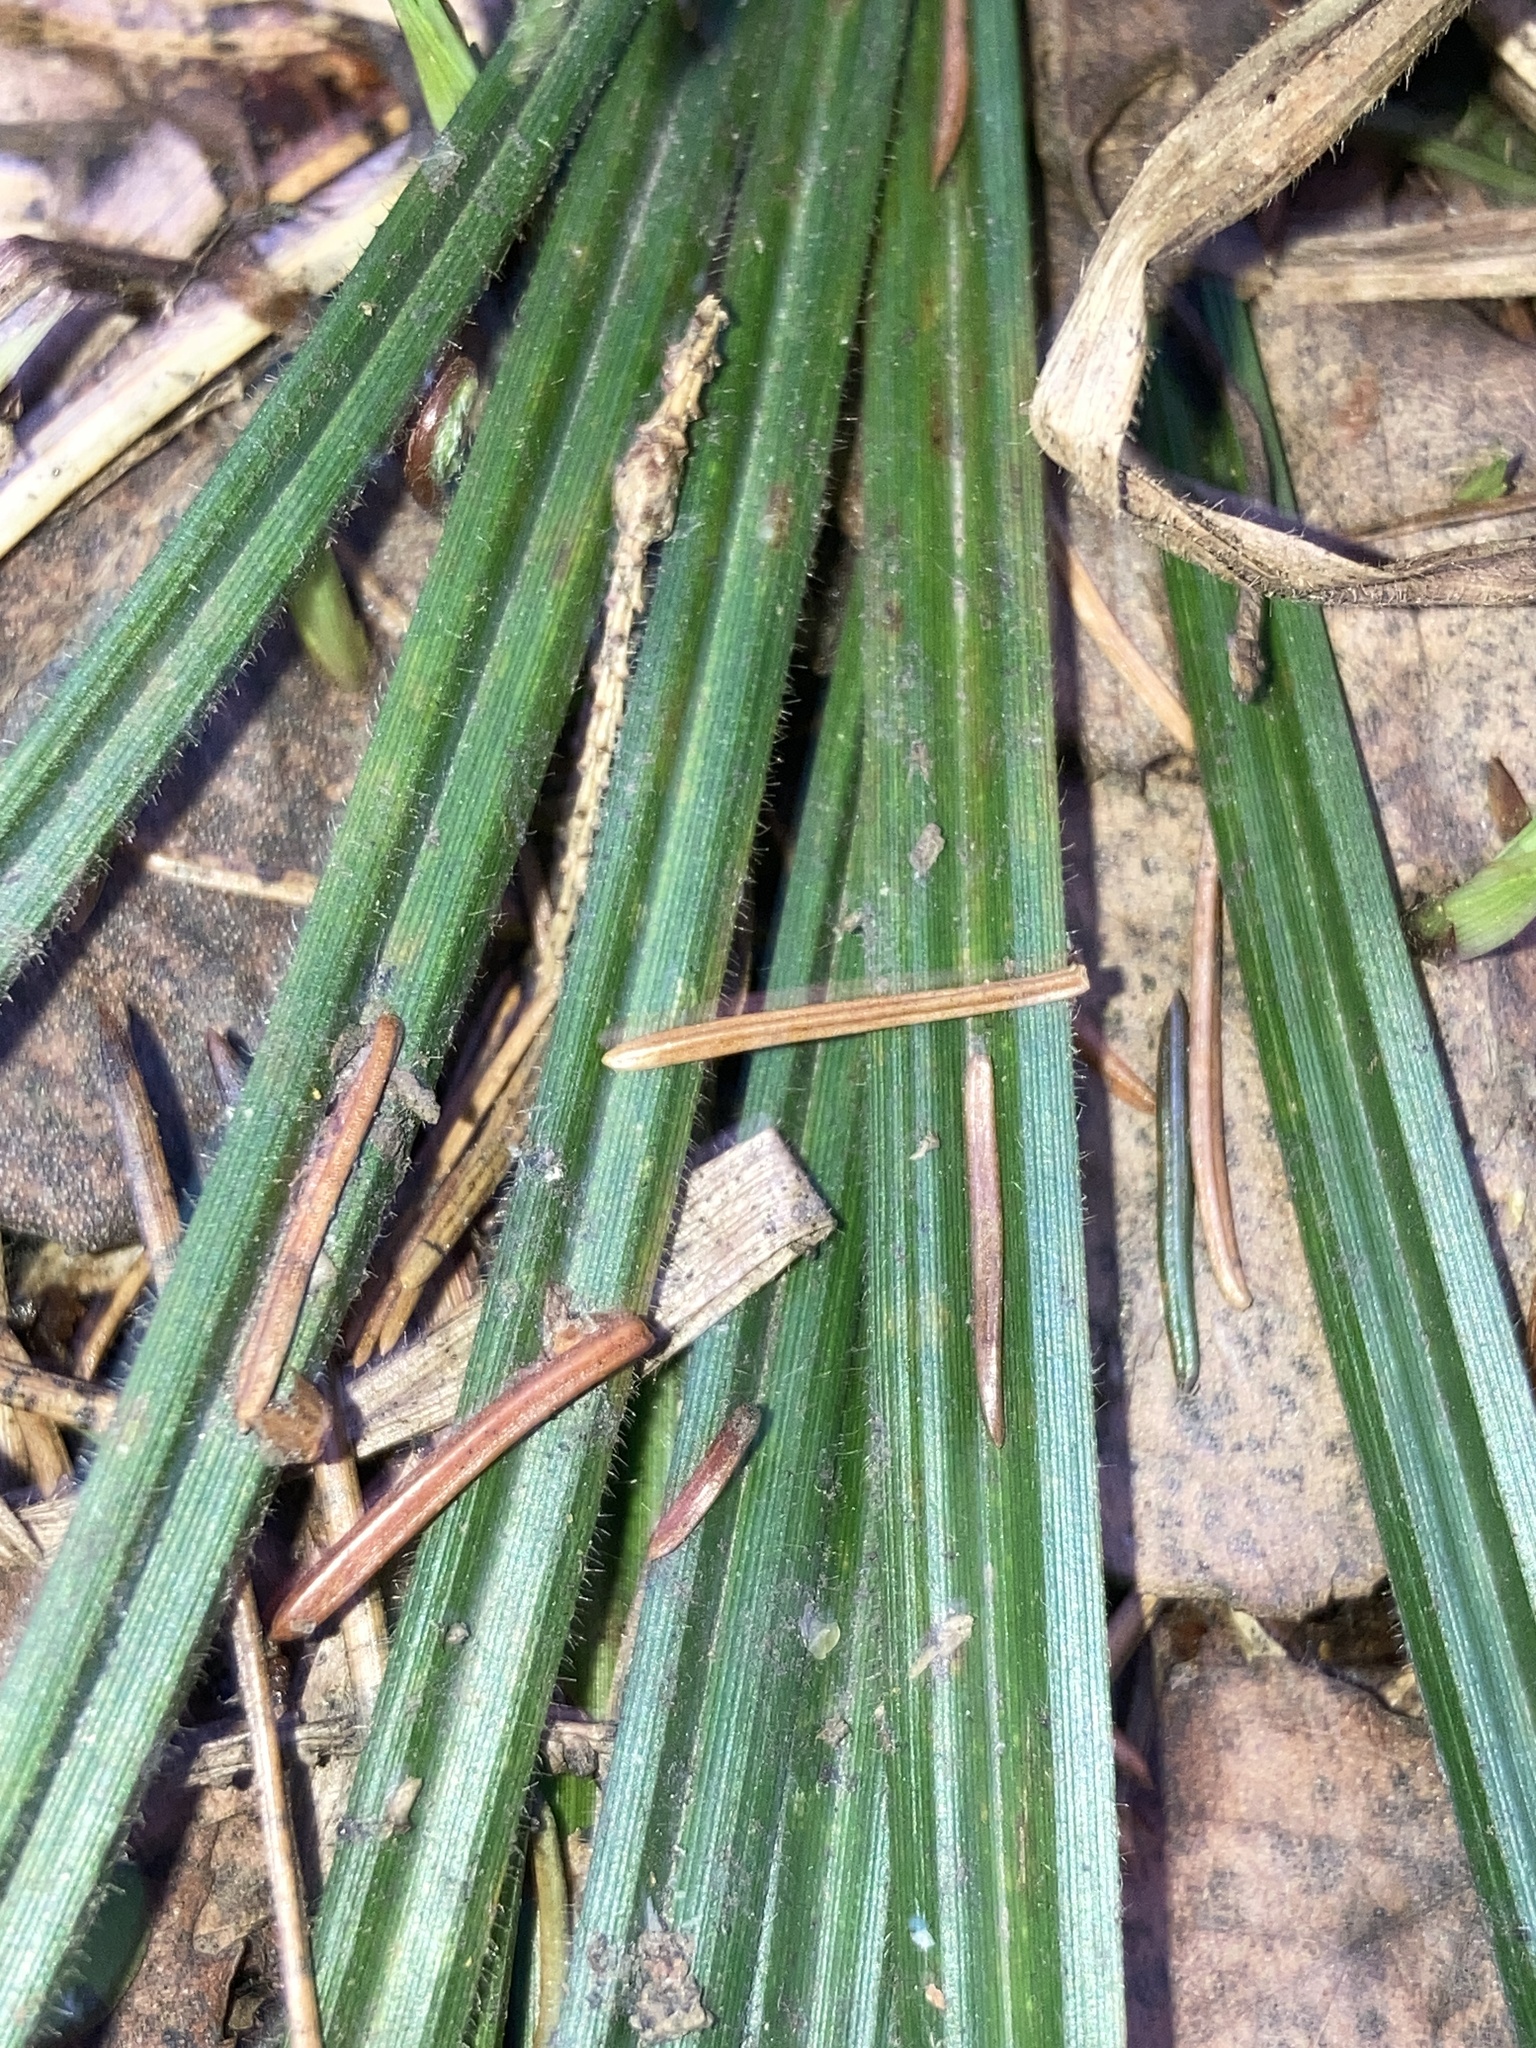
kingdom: Plantae
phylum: Tracheophyta
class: Liliopsida
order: Poales
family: Cyperaceae
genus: Carex
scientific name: Carex pilosa
